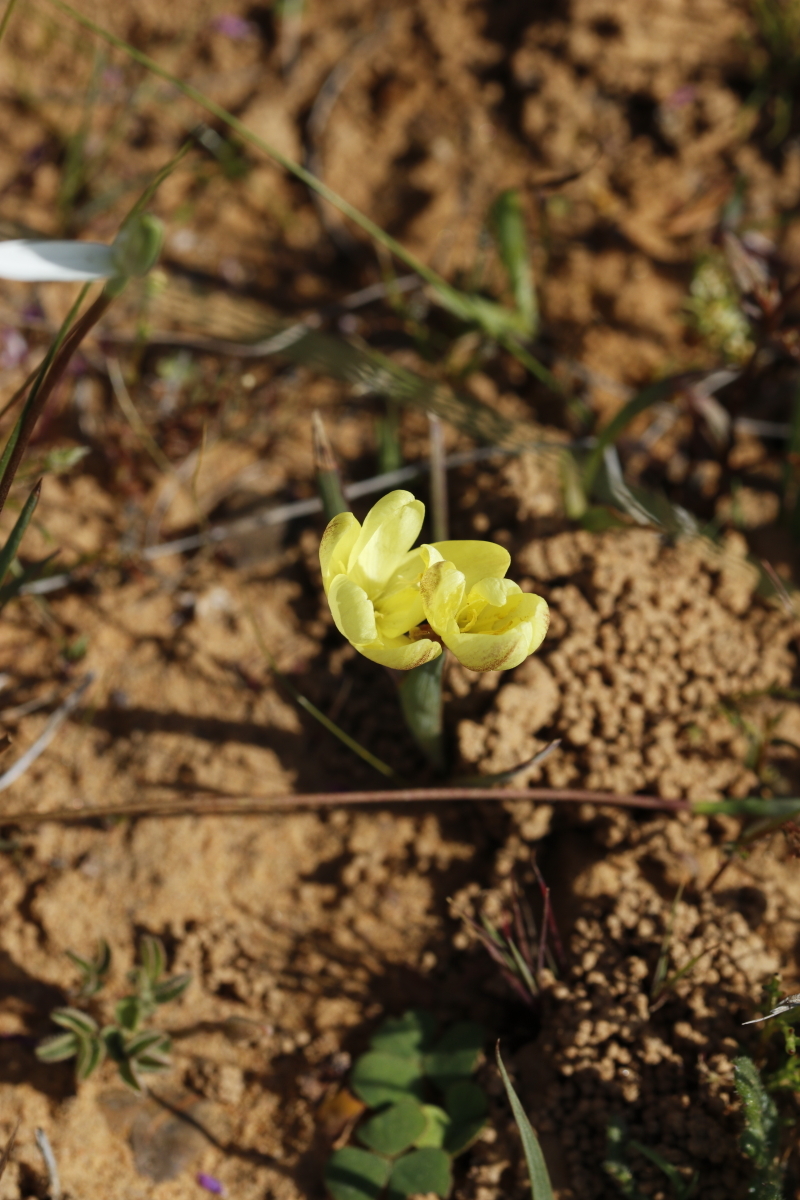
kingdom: Plantae
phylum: Tracheophyta
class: Liliopsida
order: Asparagales
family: Iridaceae
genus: Hesperantha
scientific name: Hesperantha pauciflora
